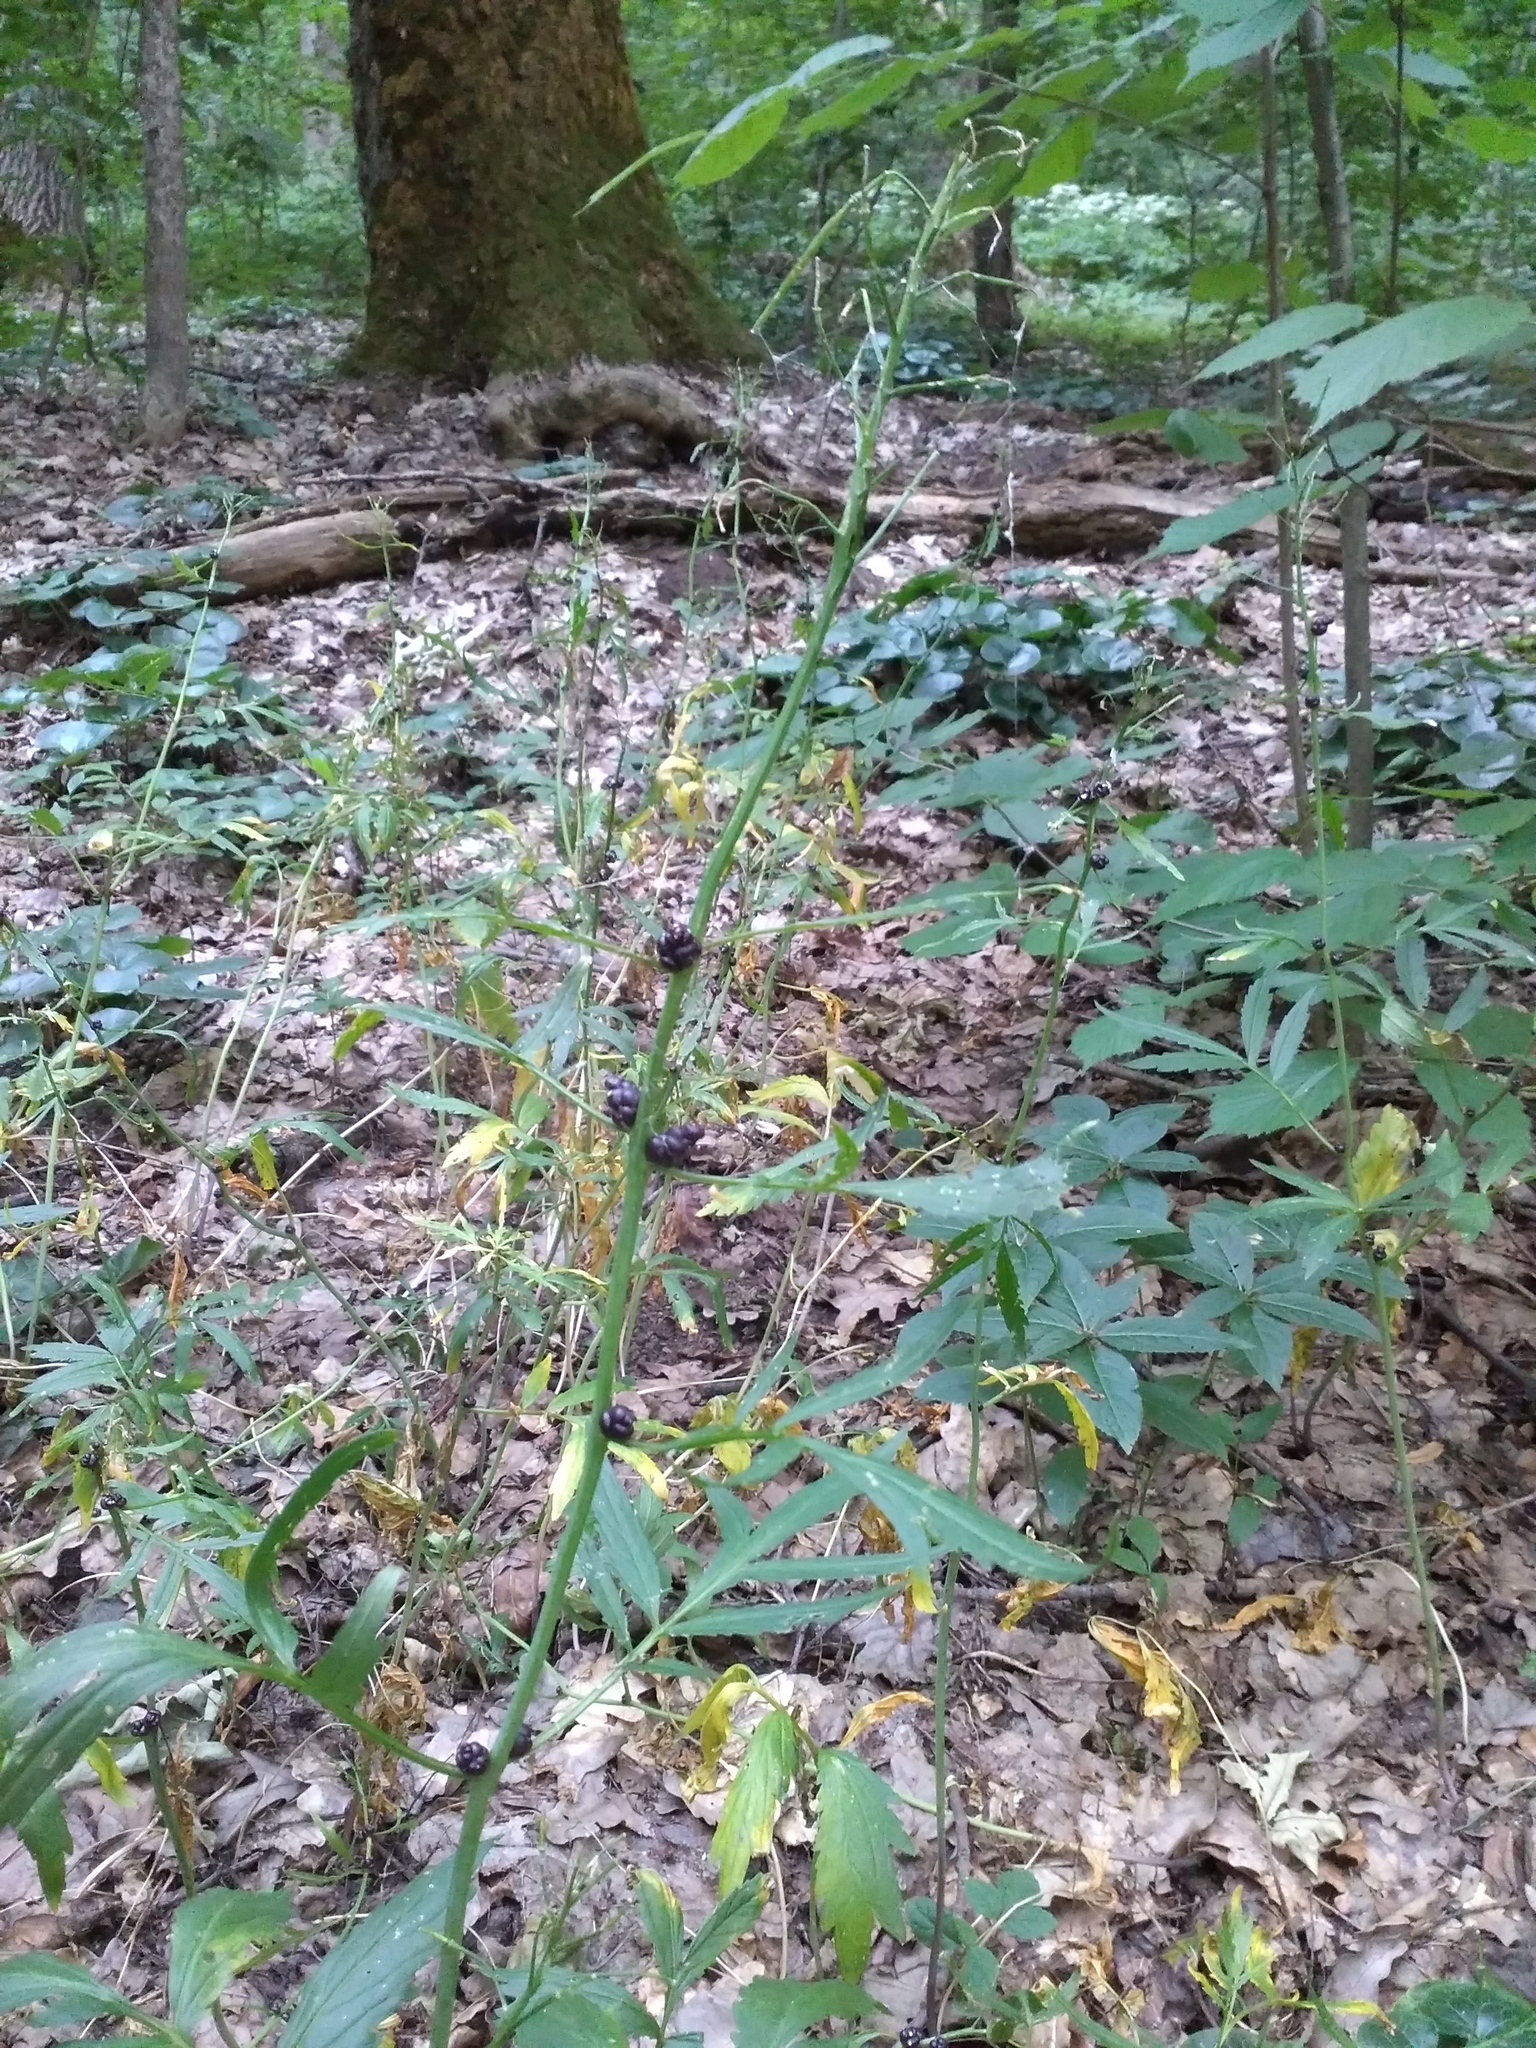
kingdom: Plantae
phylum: Tracheophyta
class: Magnoliopsida
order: Brassicales
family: Brassicaceae
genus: Cardamine
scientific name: Cardamine bulbifera
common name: Coralroot bittercress
